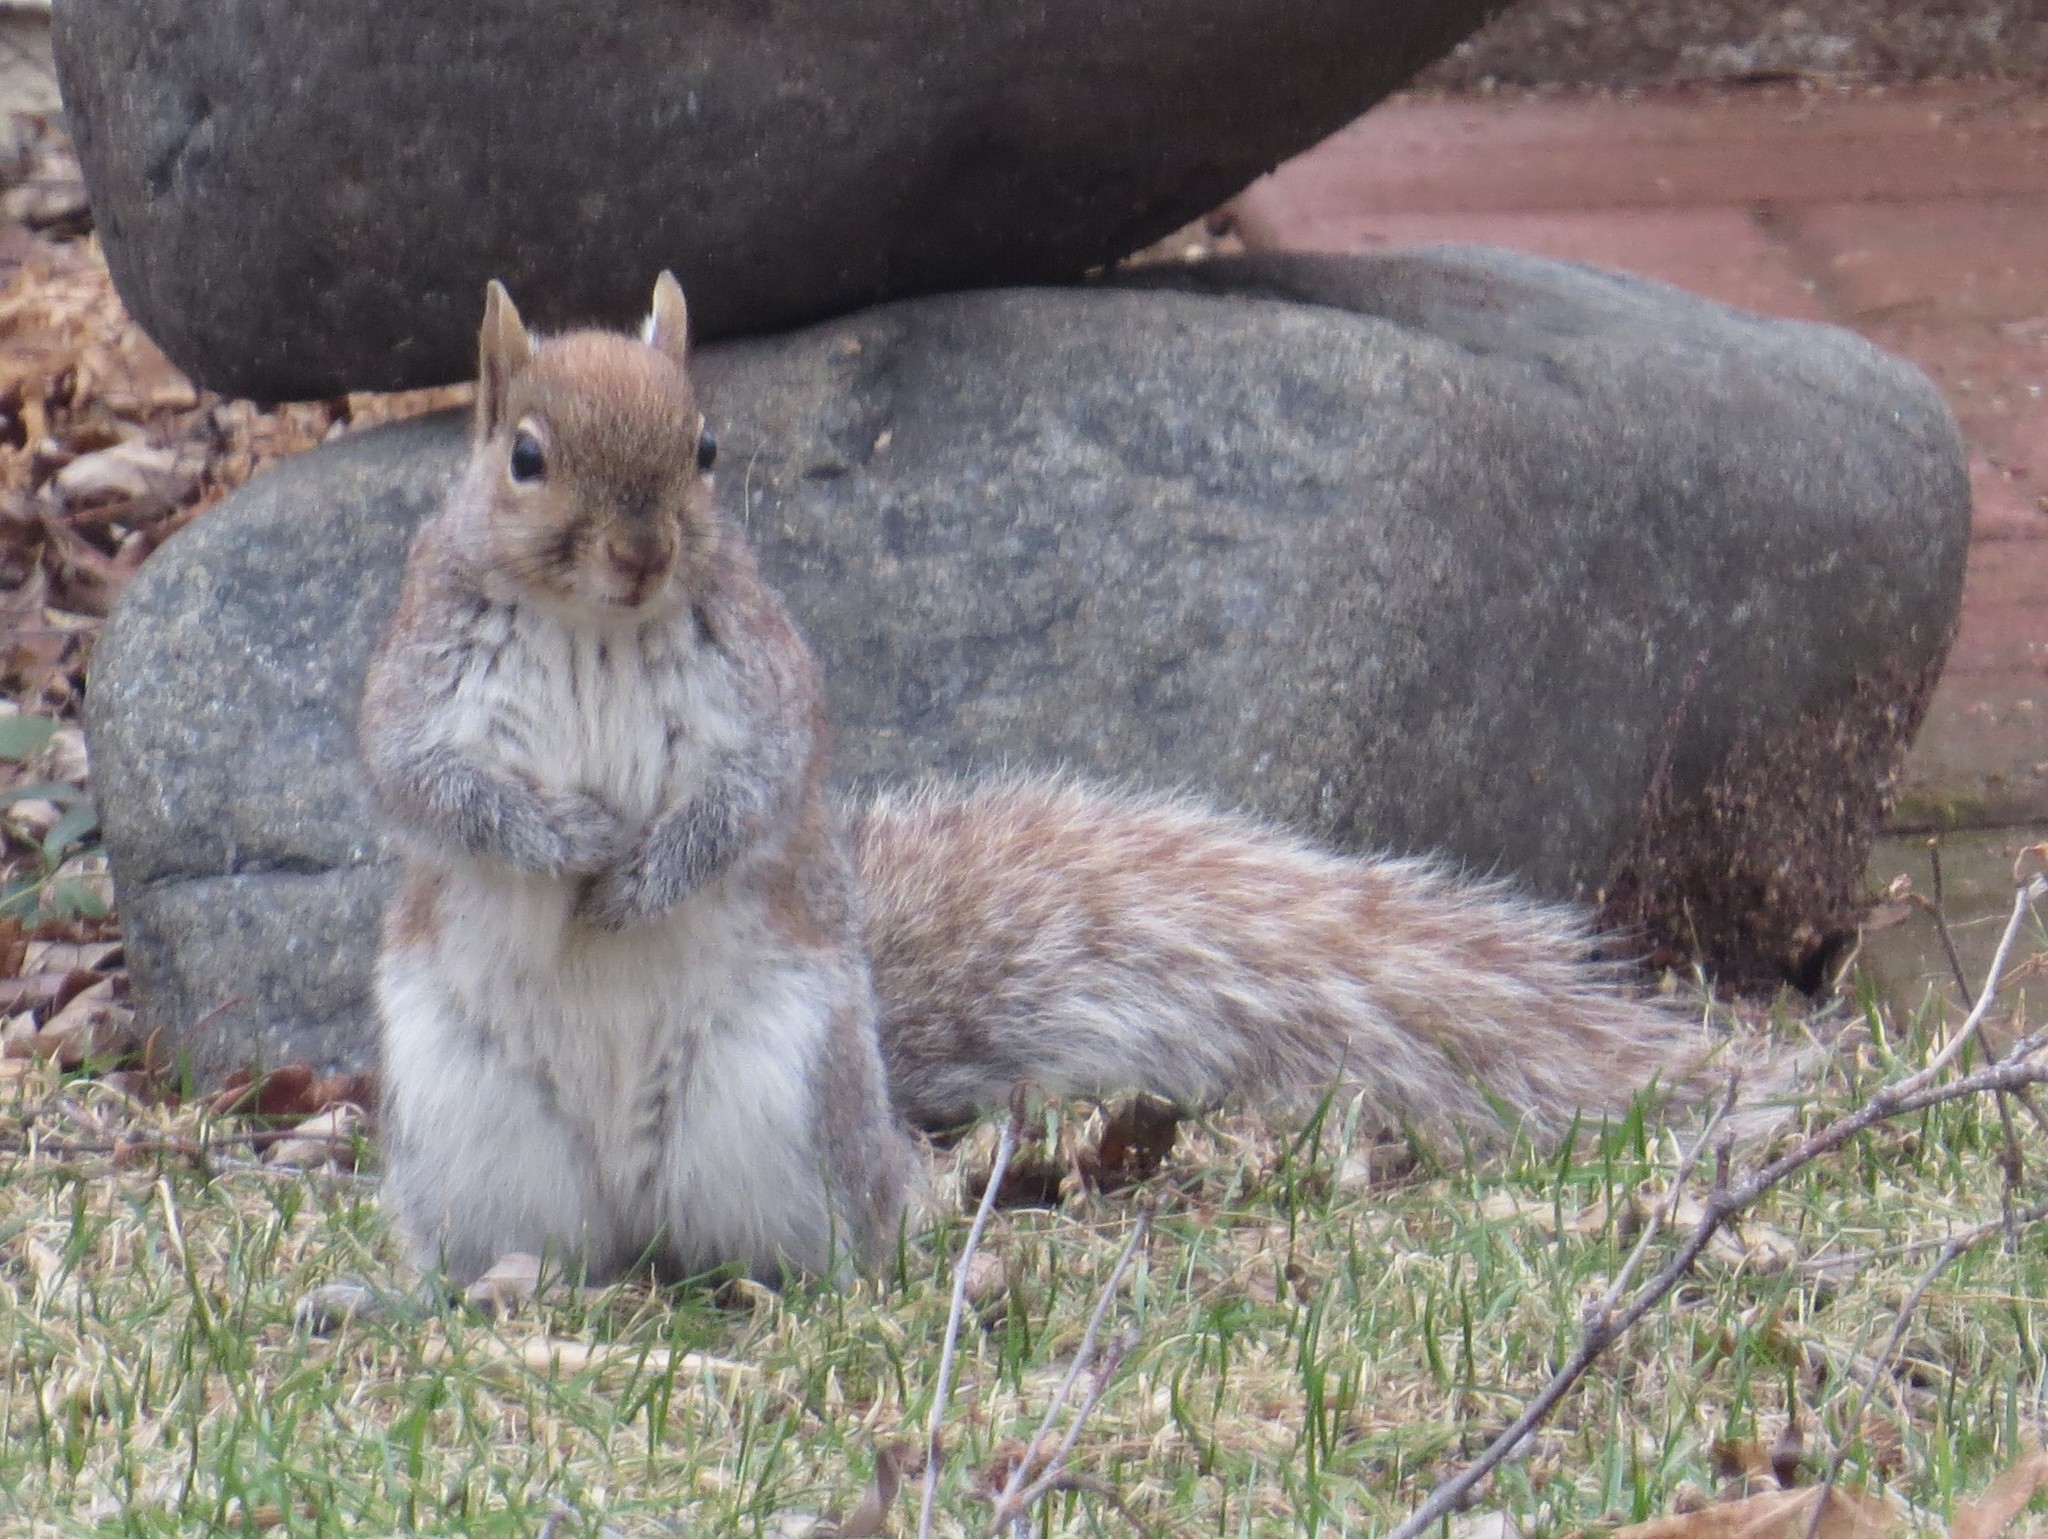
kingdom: Animalia
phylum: Chordata
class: Mammalia
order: Rodentia
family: Sciuridae
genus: Sciurus
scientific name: Sciurus carolinensis
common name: Eastern gray squirrel
